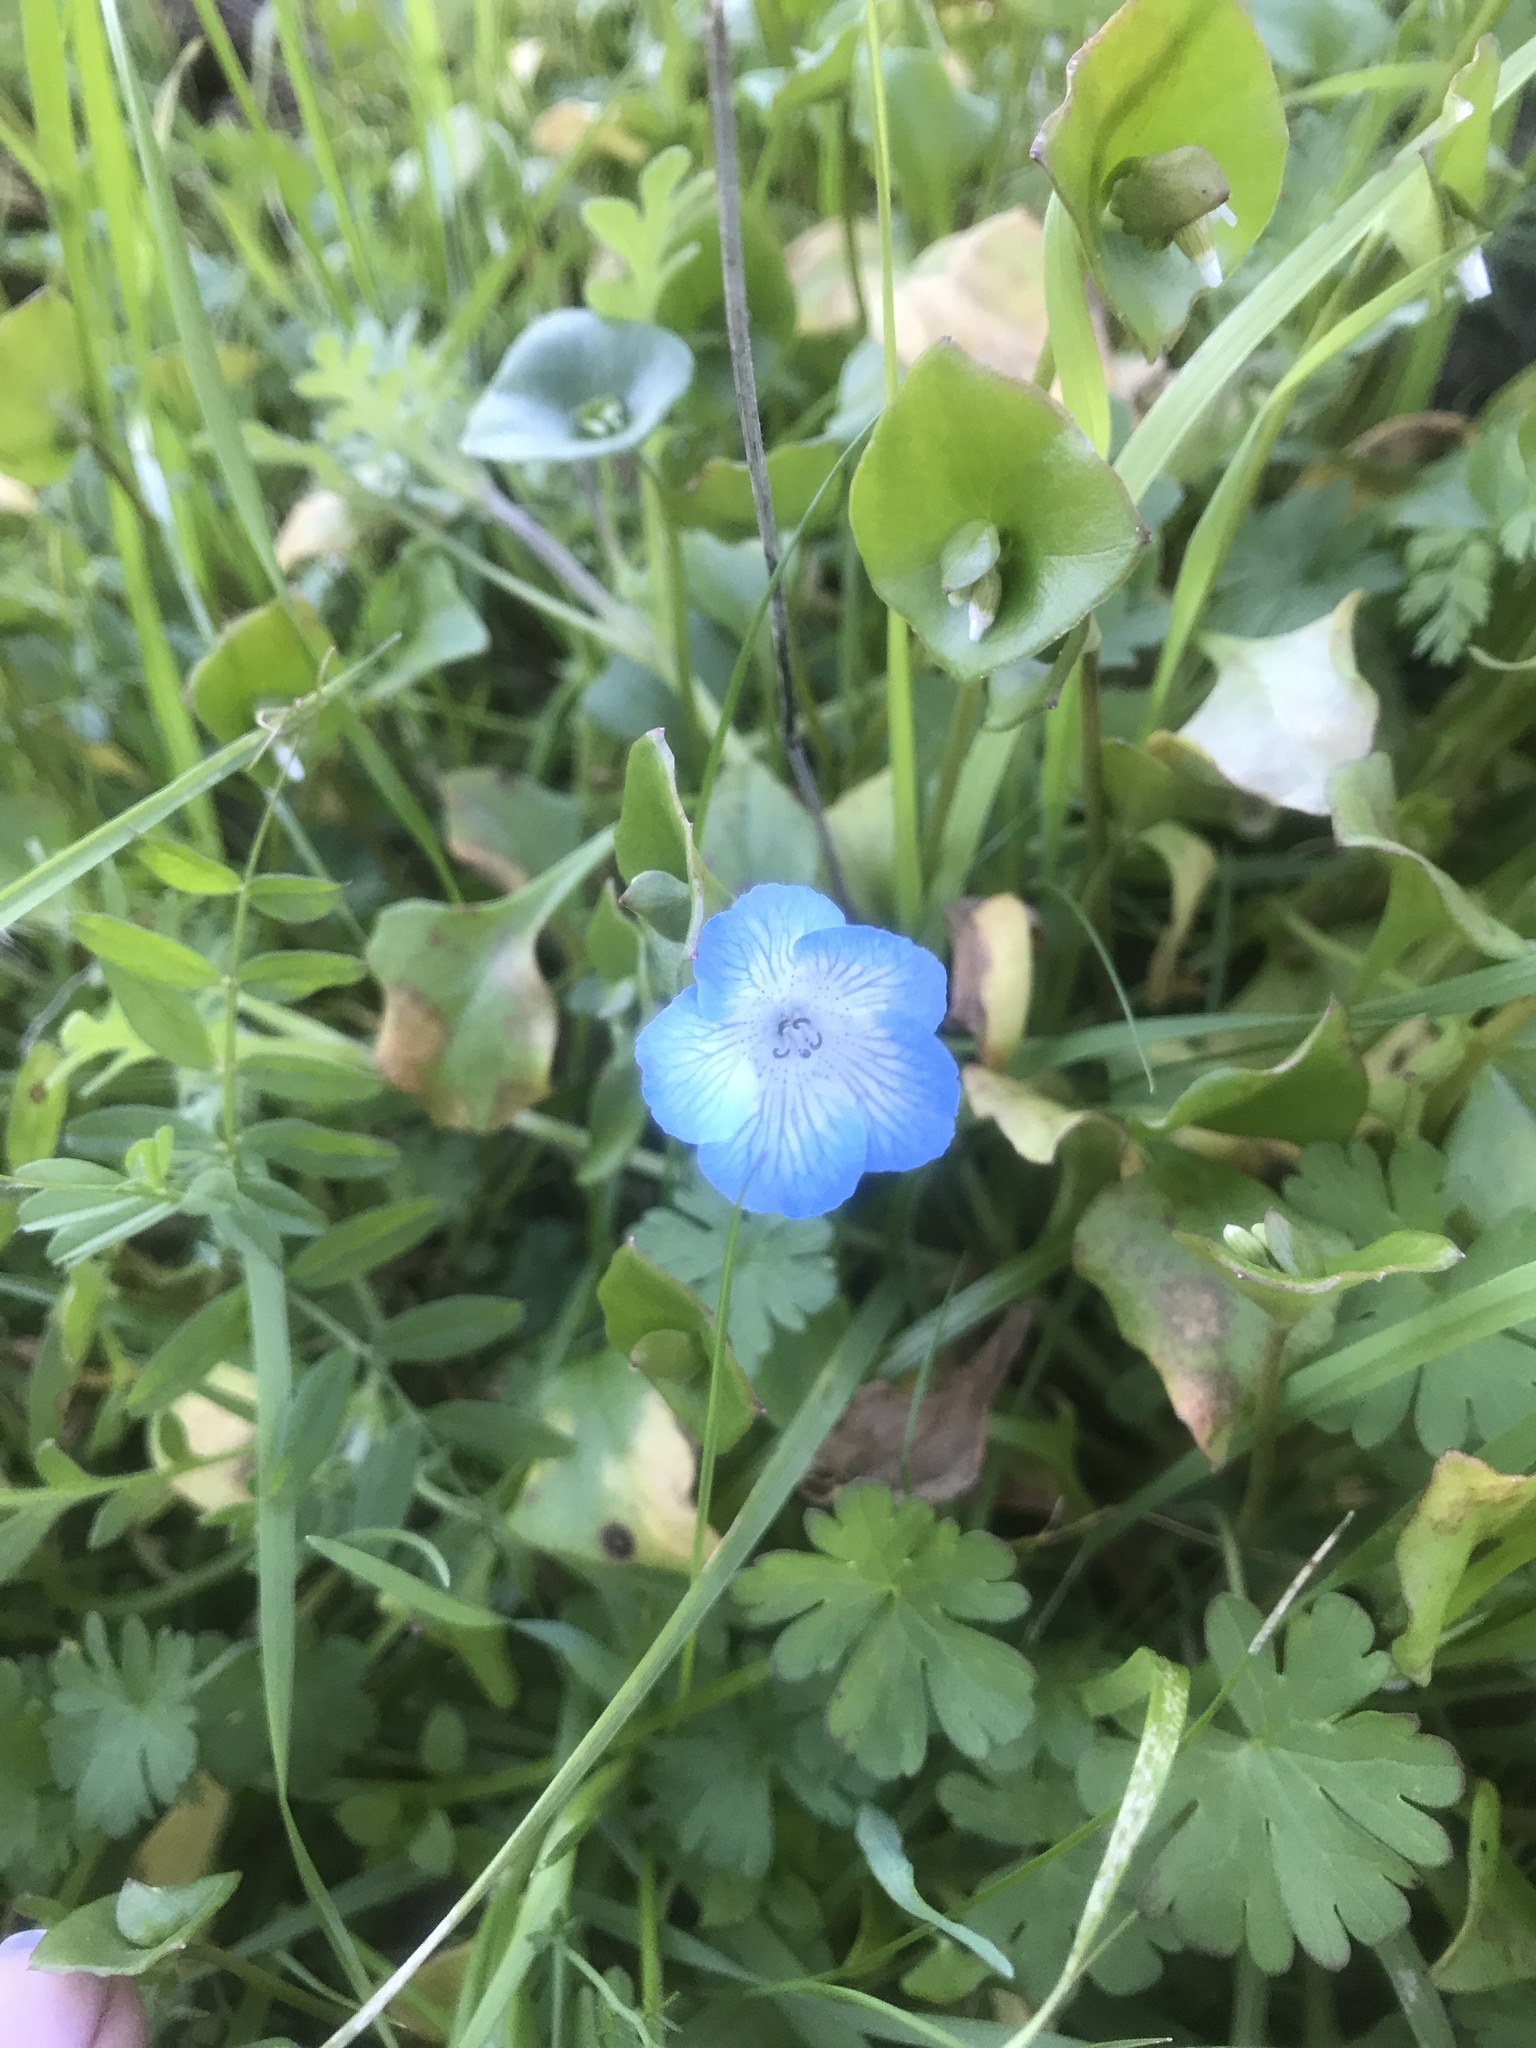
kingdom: Plantae
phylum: Tracheophyta
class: Magnoliopsida
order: Boraginales
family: Hydrophyllaceae
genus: Nemophila
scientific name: Nemophila menziesii
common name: Baby's-blue-eyes
